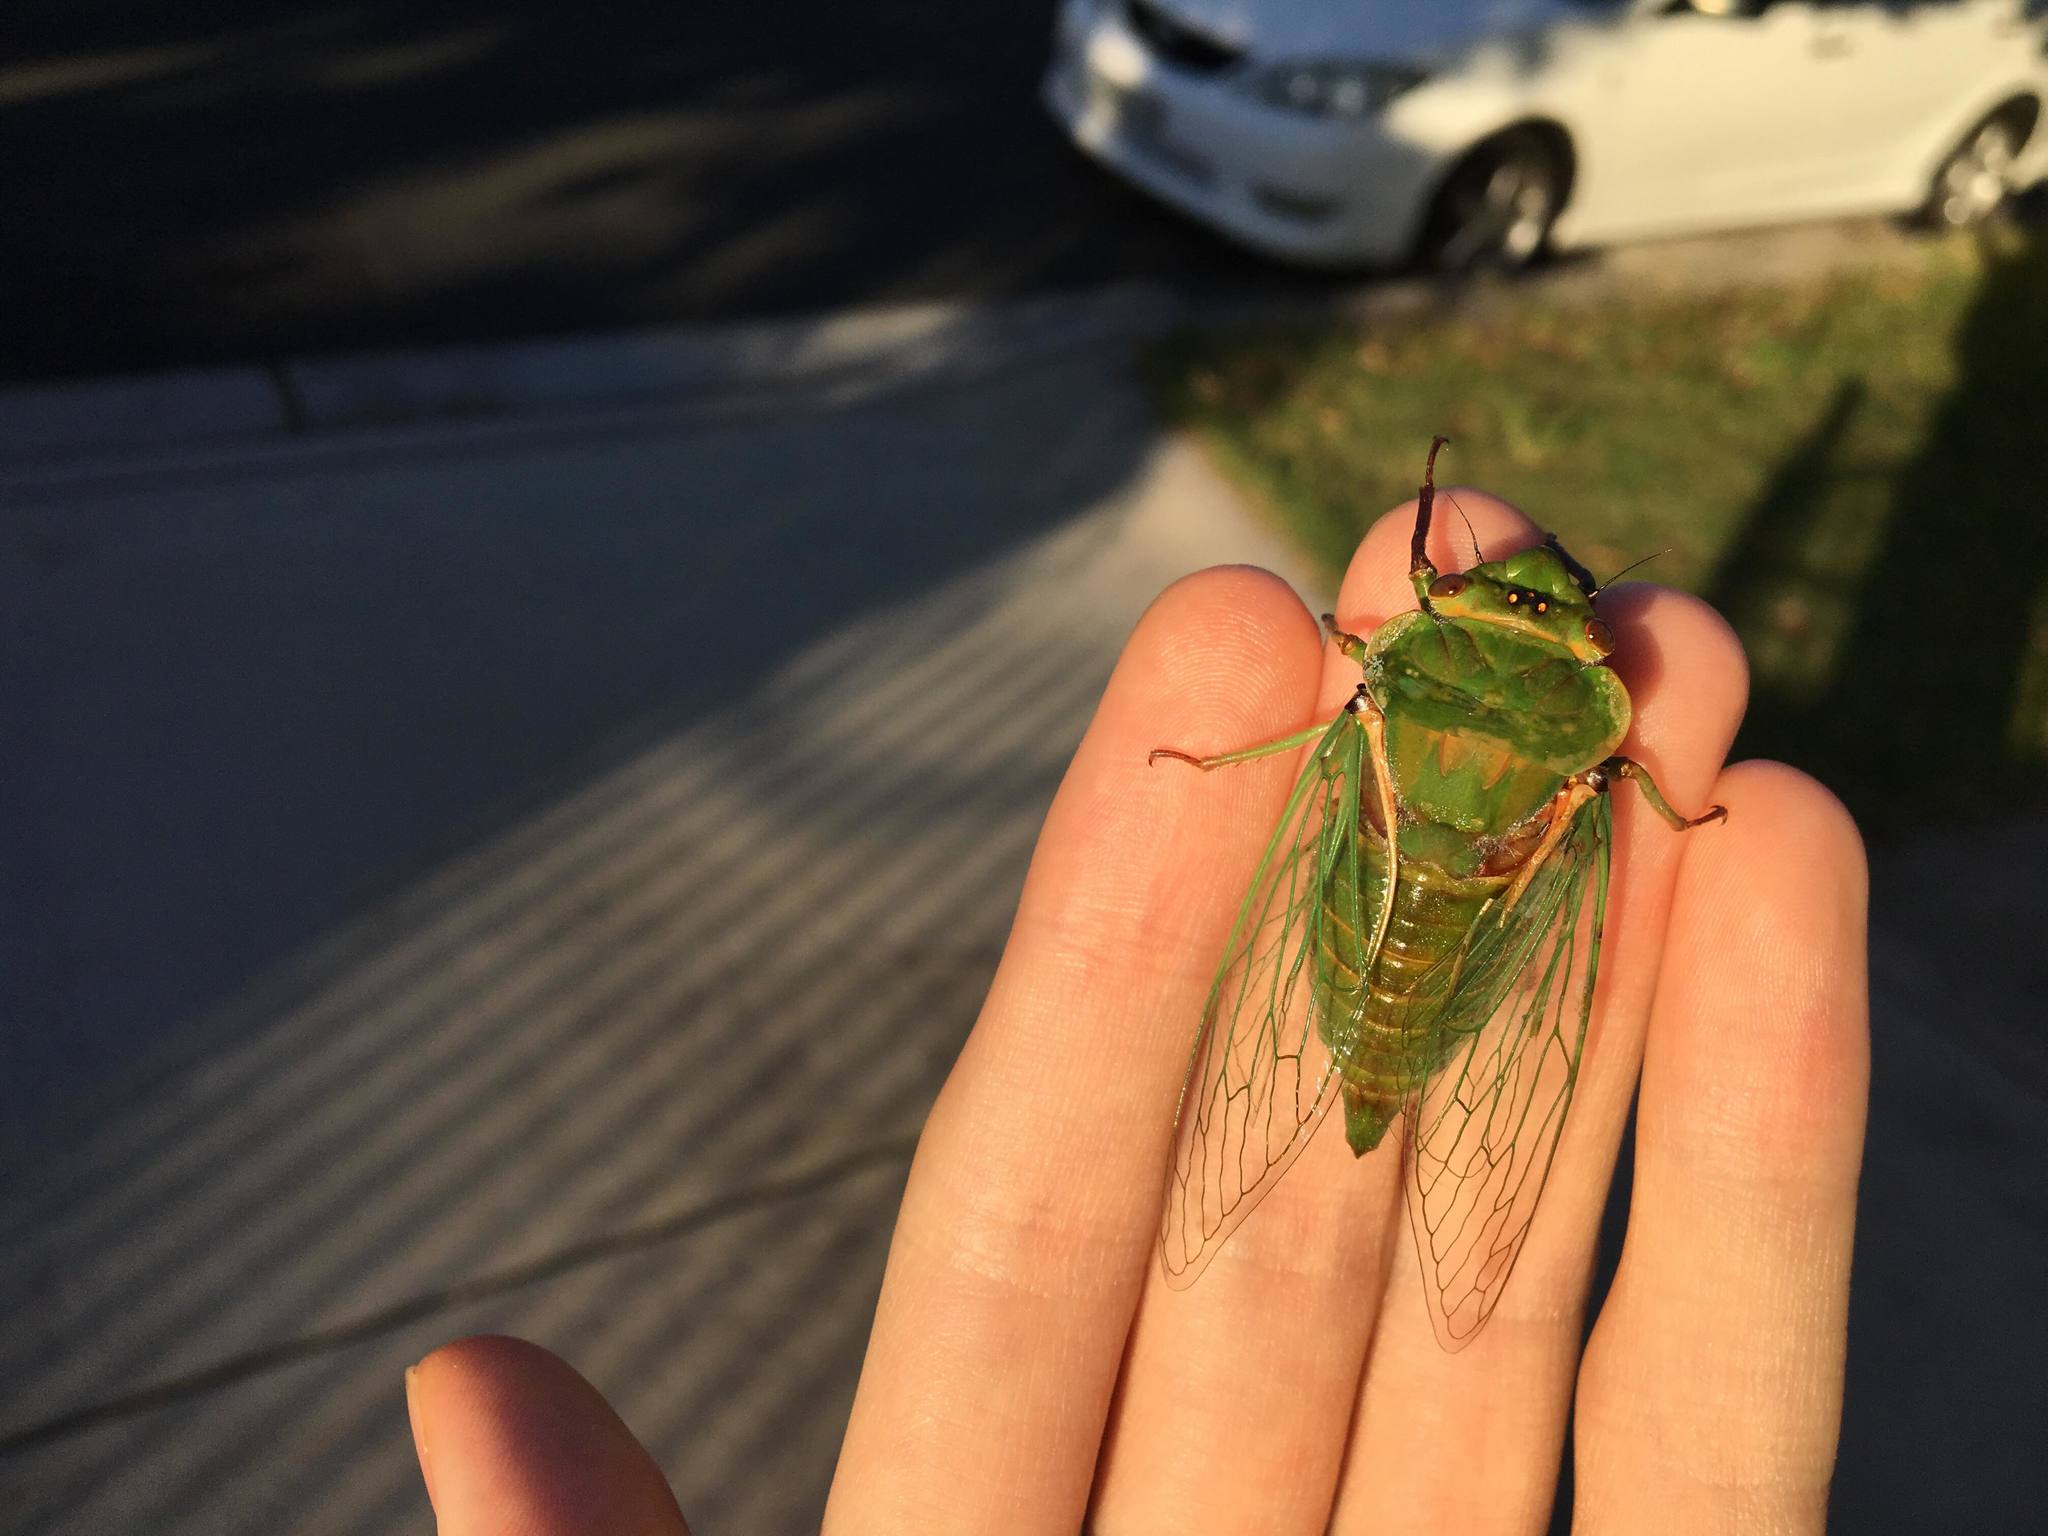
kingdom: Animalia
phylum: Arthropoda
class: Insecta
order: Hemiptera
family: Cicadidae
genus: Cyclochila
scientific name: Cyclochila australasiae
